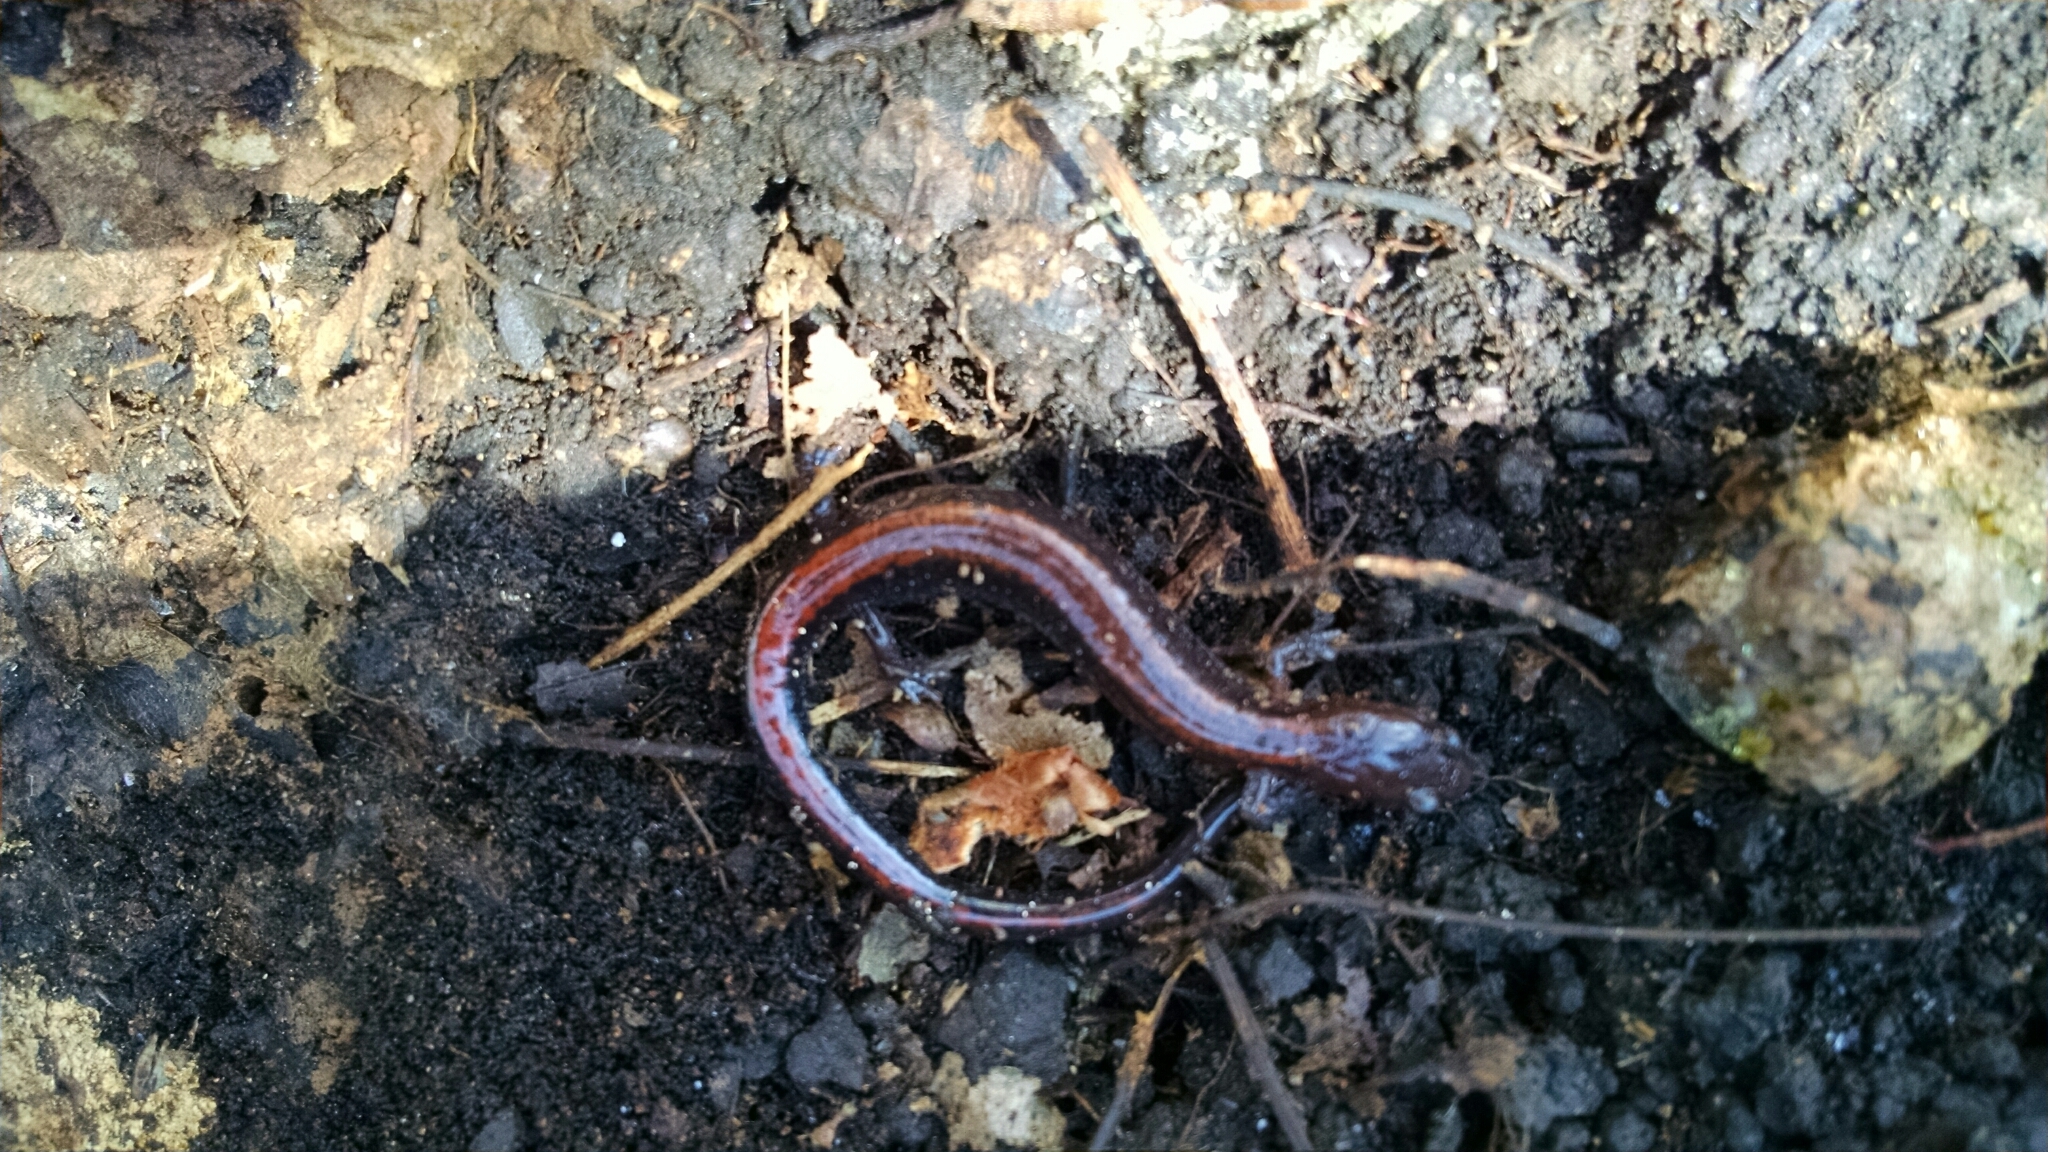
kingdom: Animalia
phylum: Chordata
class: Amphibia
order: Caudata
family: Plethodontidae
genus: Plethodon
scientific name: Plethodon cinereus
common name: Redback salamander
